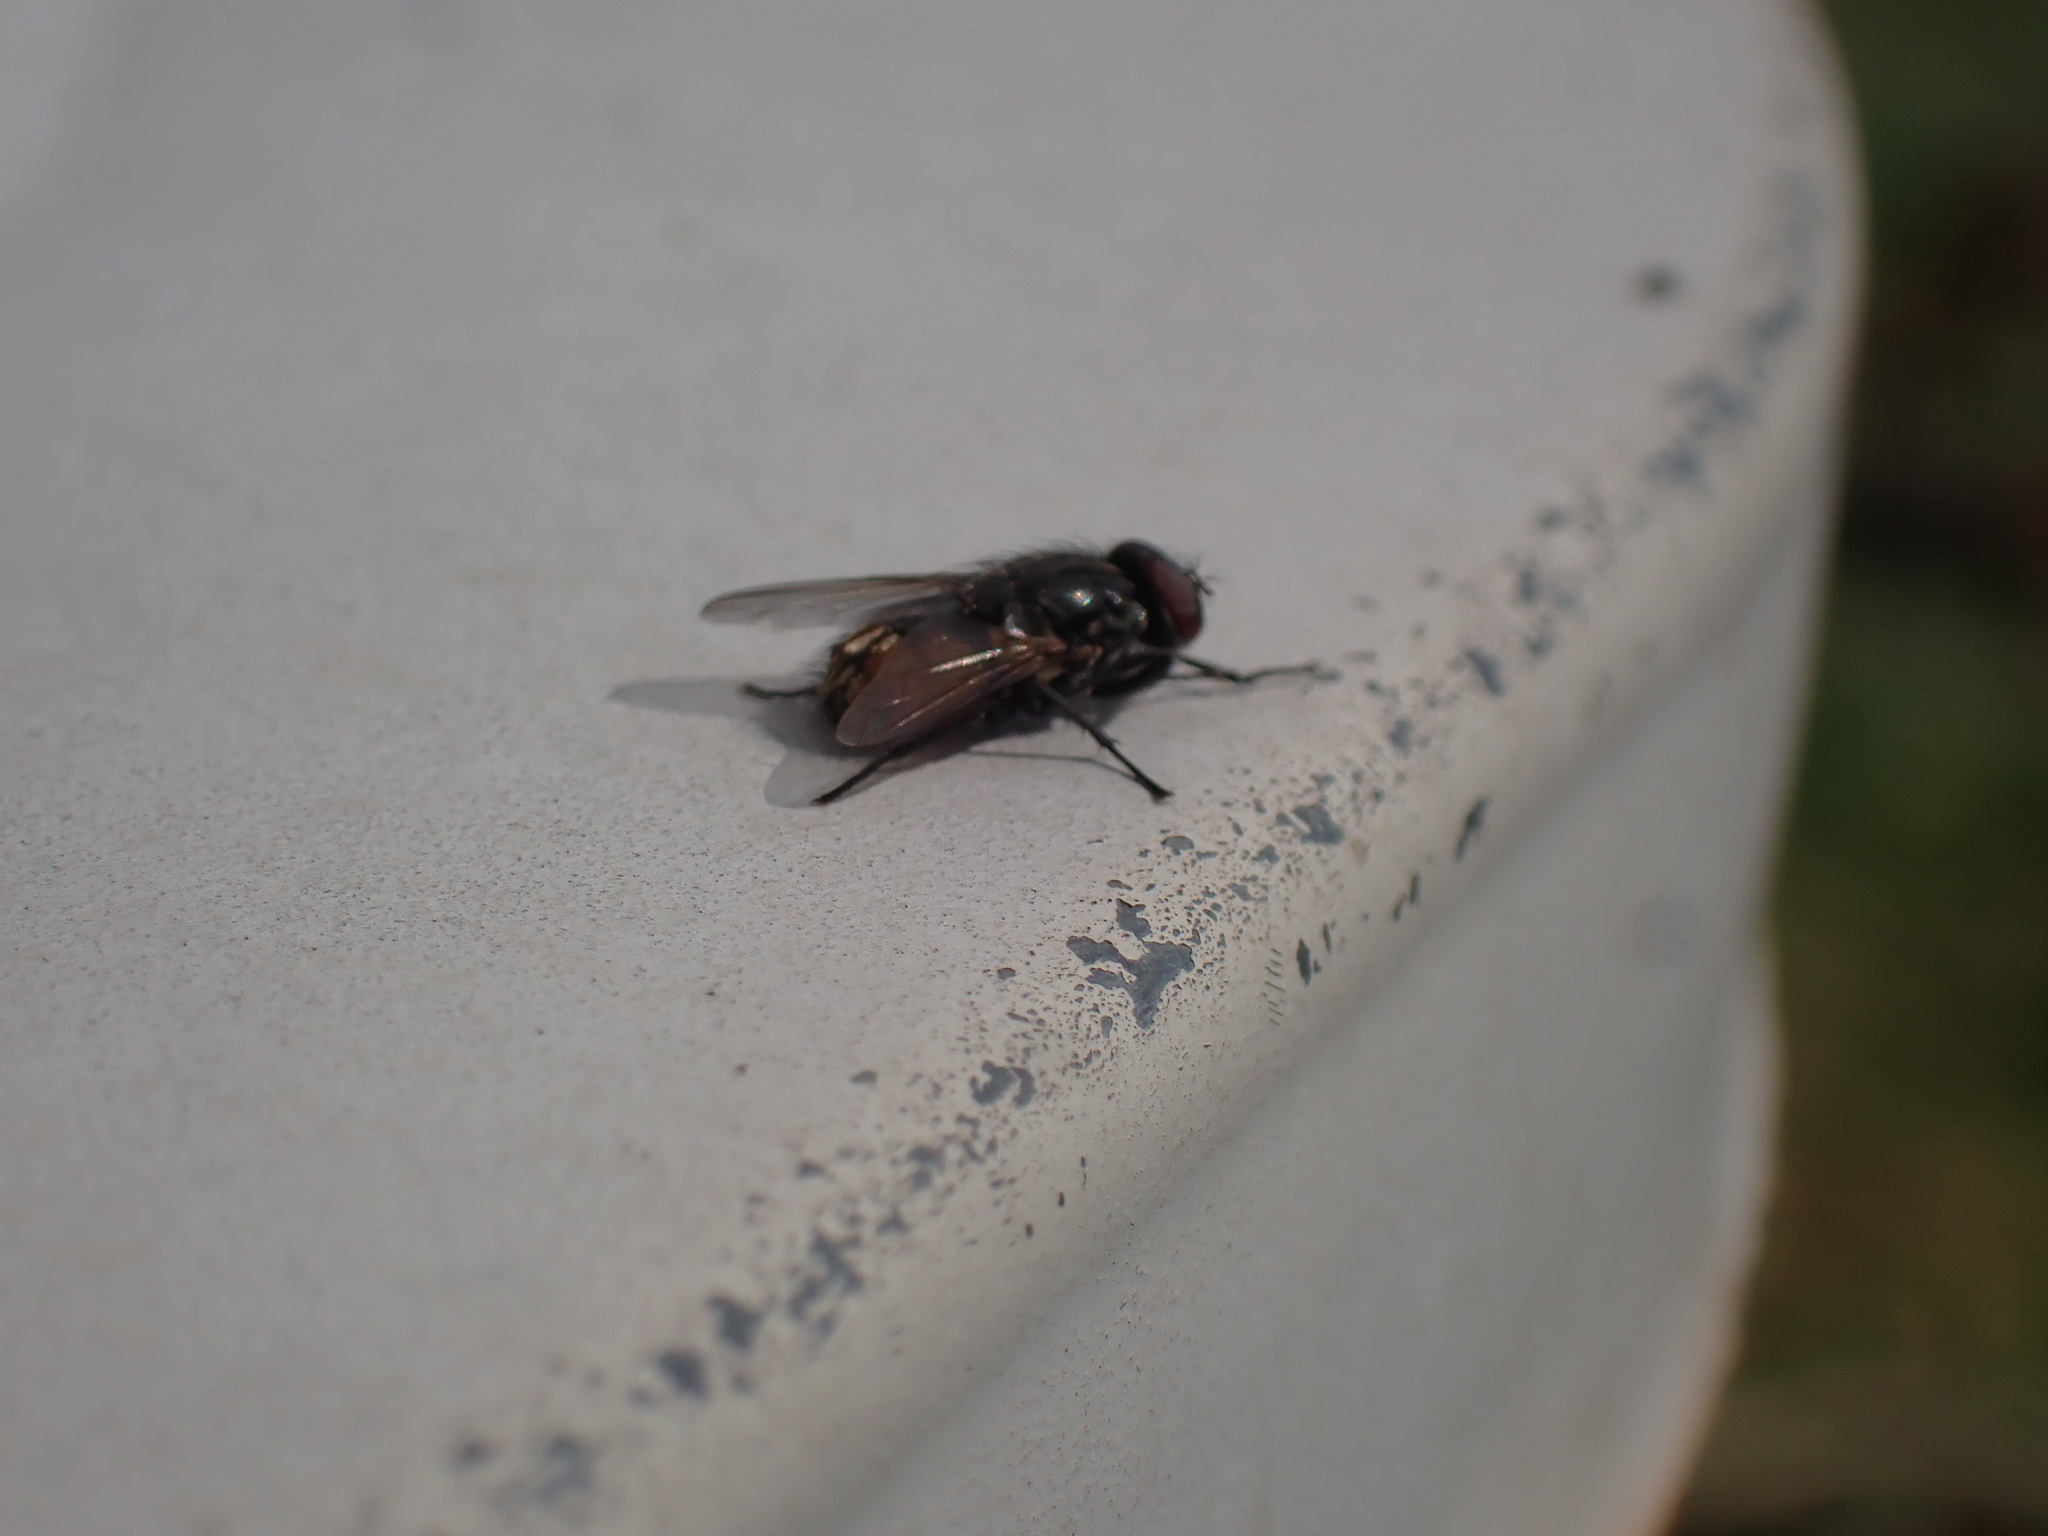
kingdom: Animalia
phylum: Arthropoda
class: Insecta
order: Diptera
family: Muscidae
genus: Musca
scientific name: Musca autumnalis
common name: Face fly
